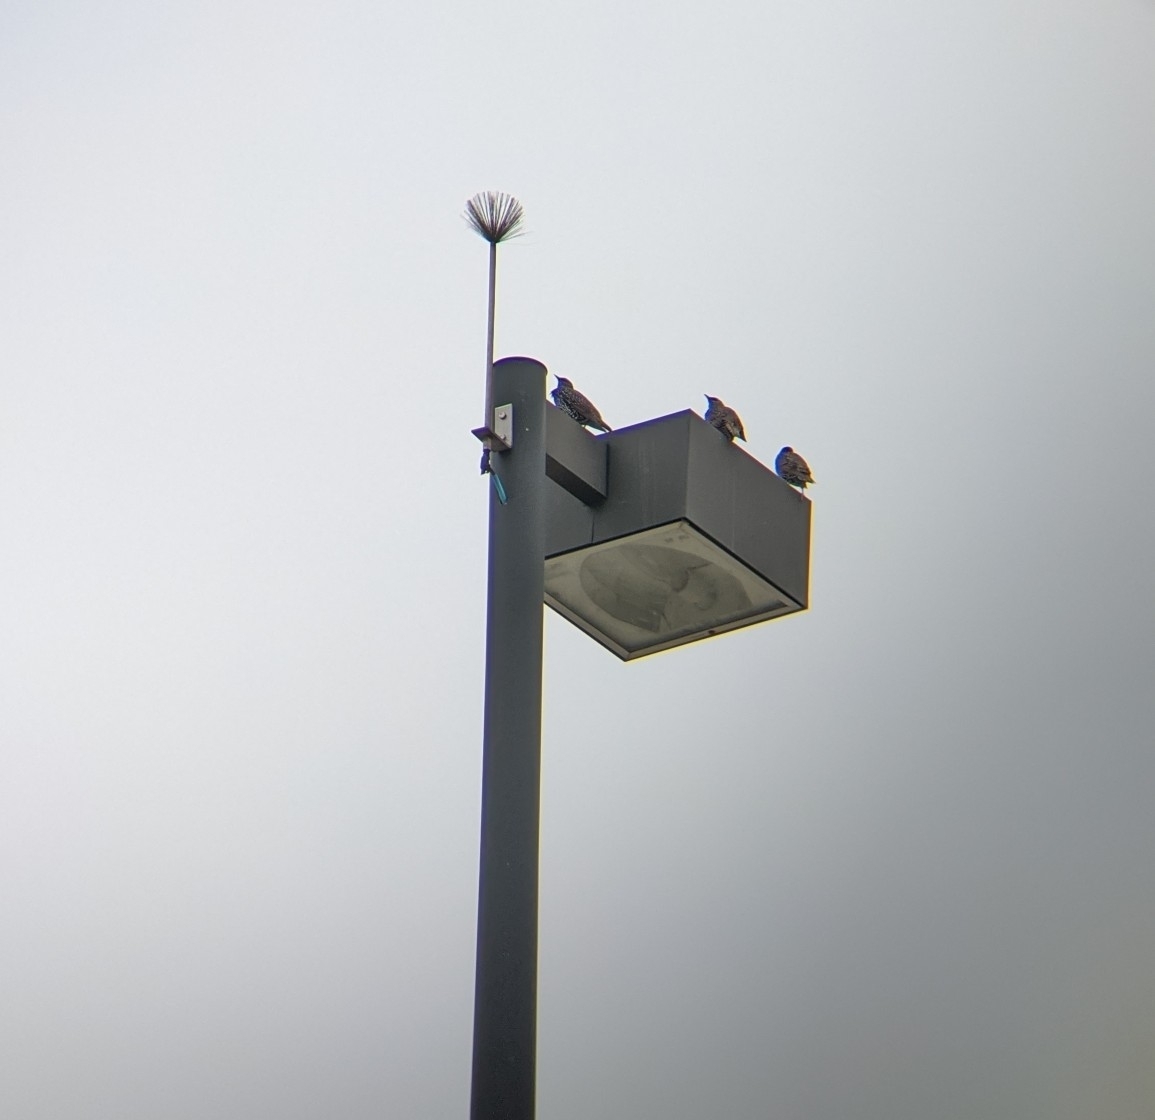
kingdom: Animalia
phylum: Chordata
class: Aves
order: Passeriformes
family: Sturnidae
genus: Sturnus
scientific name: Sturnus vulgaris
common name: Common starling
